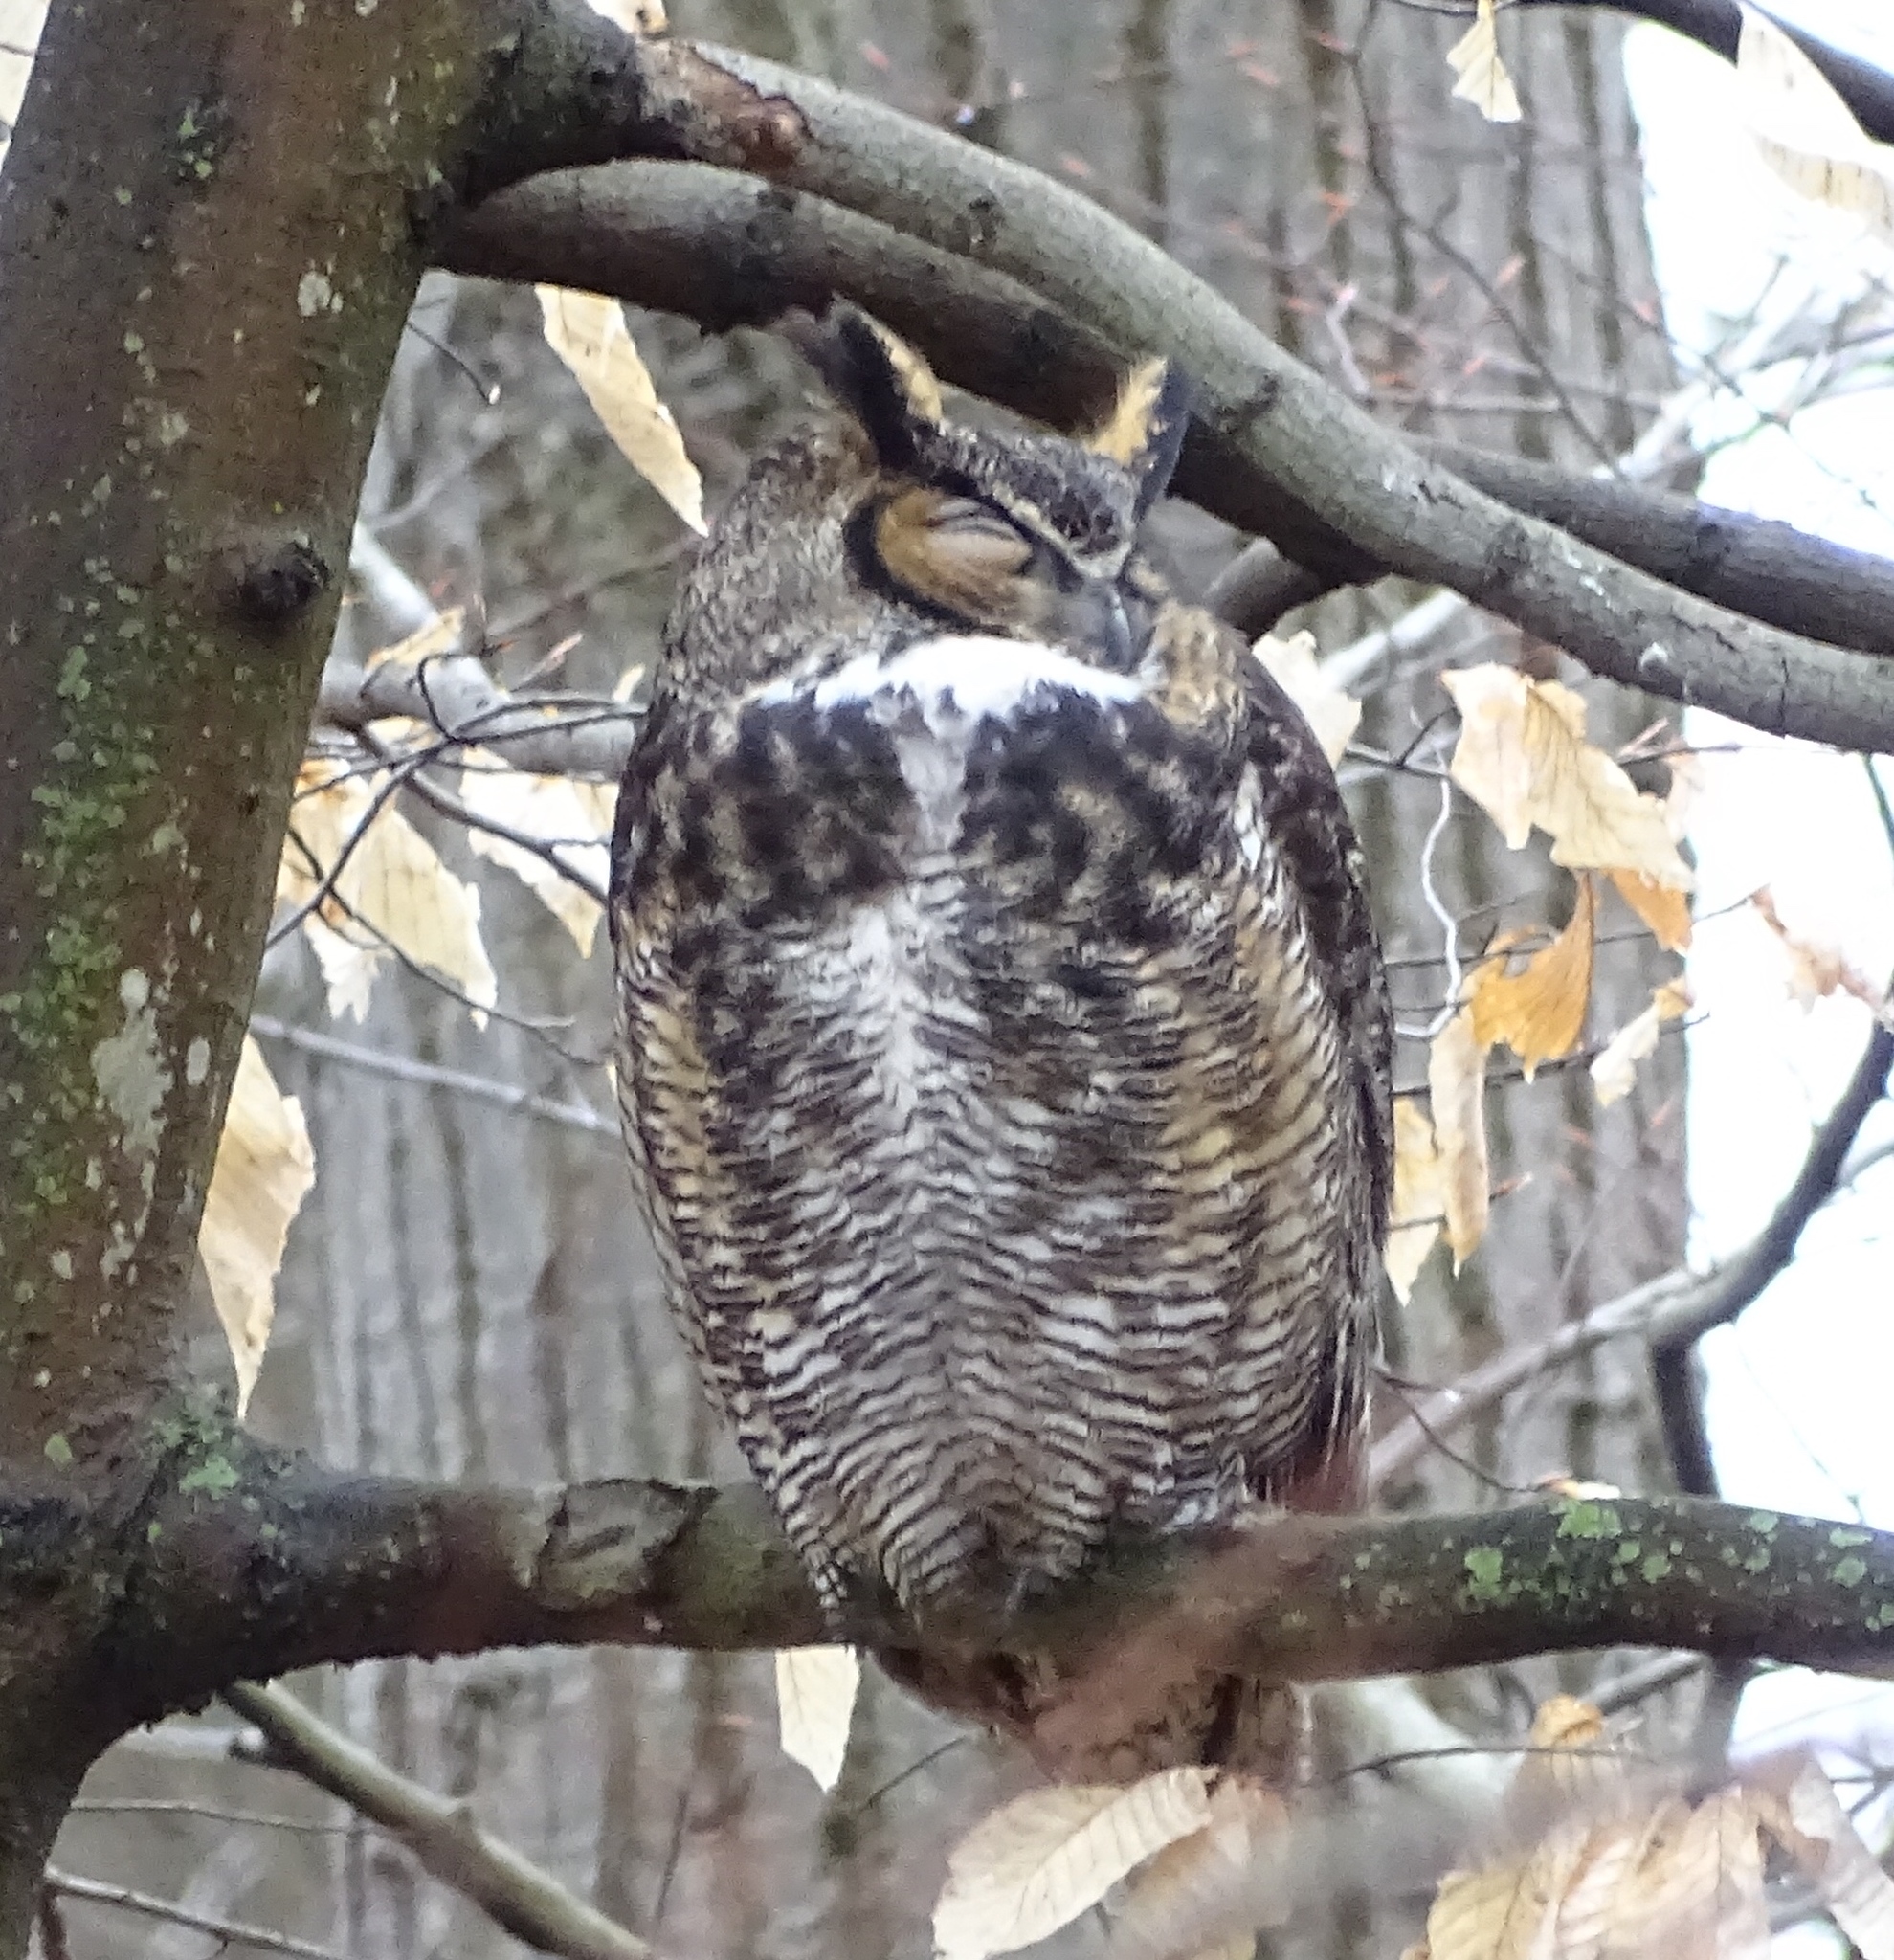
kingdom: Animalia
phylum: Chordata
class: Aves
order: Strigiformes
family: Strigidae
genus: Bubo
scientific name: Bubo virginianus
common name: Great horned owl
